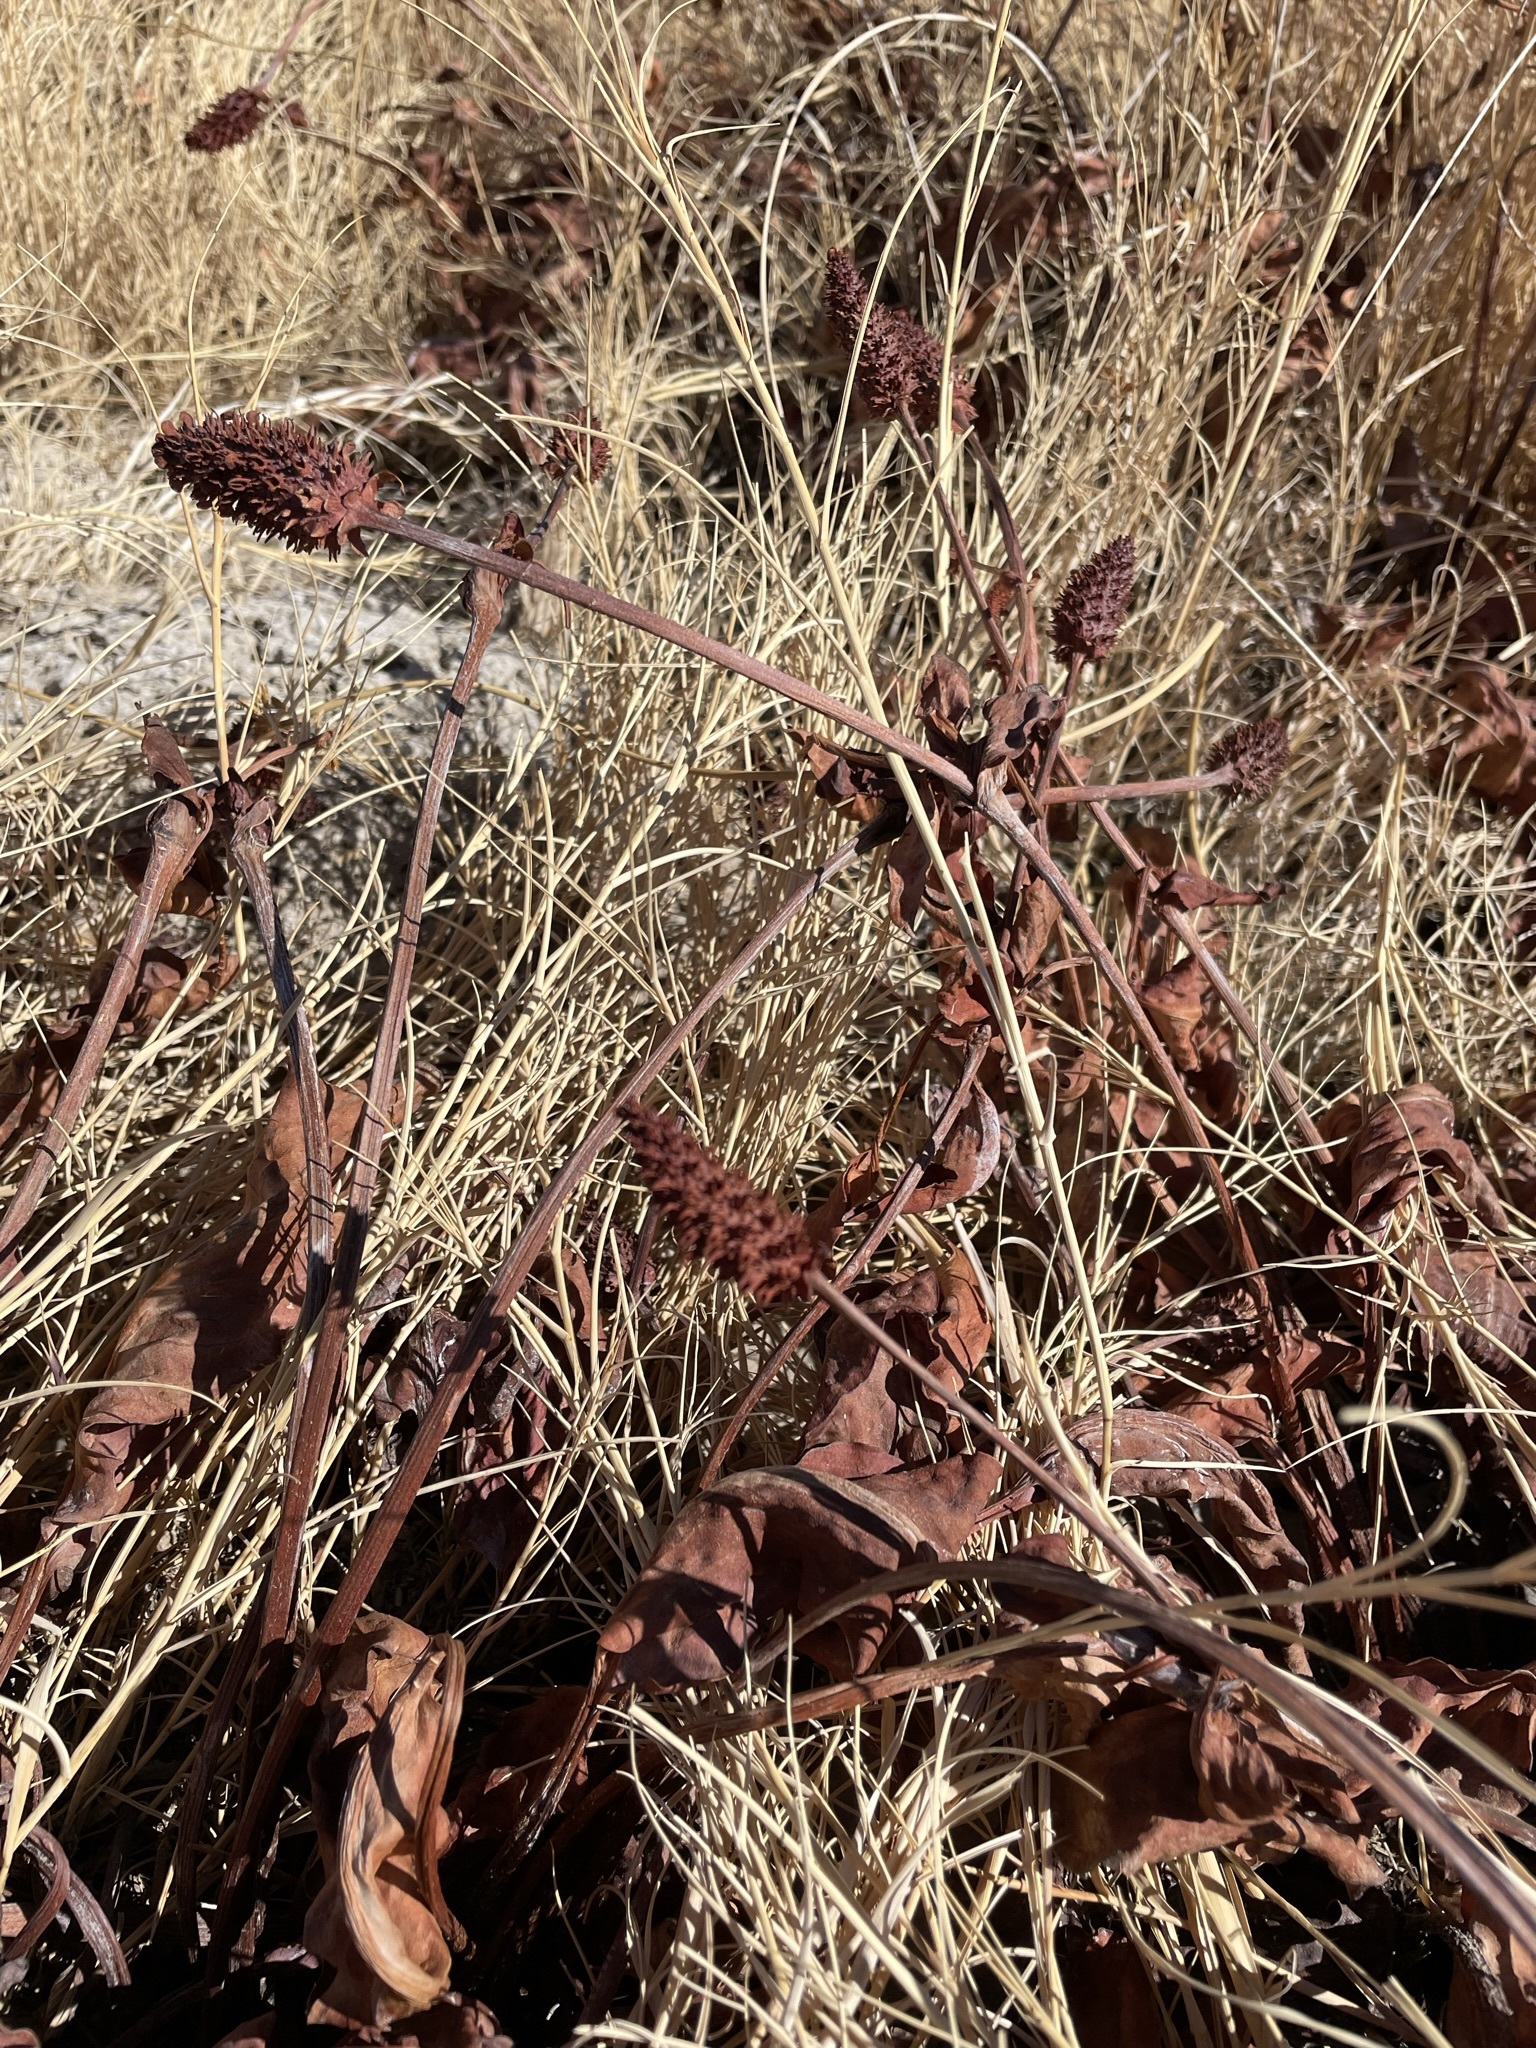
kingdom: Plantae
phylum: Tracheophyta
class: Magnoliopsida
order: Piperales
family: Saururaceae
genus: Anemopsis
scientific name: Anemopsis californica
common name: Apache-beads
